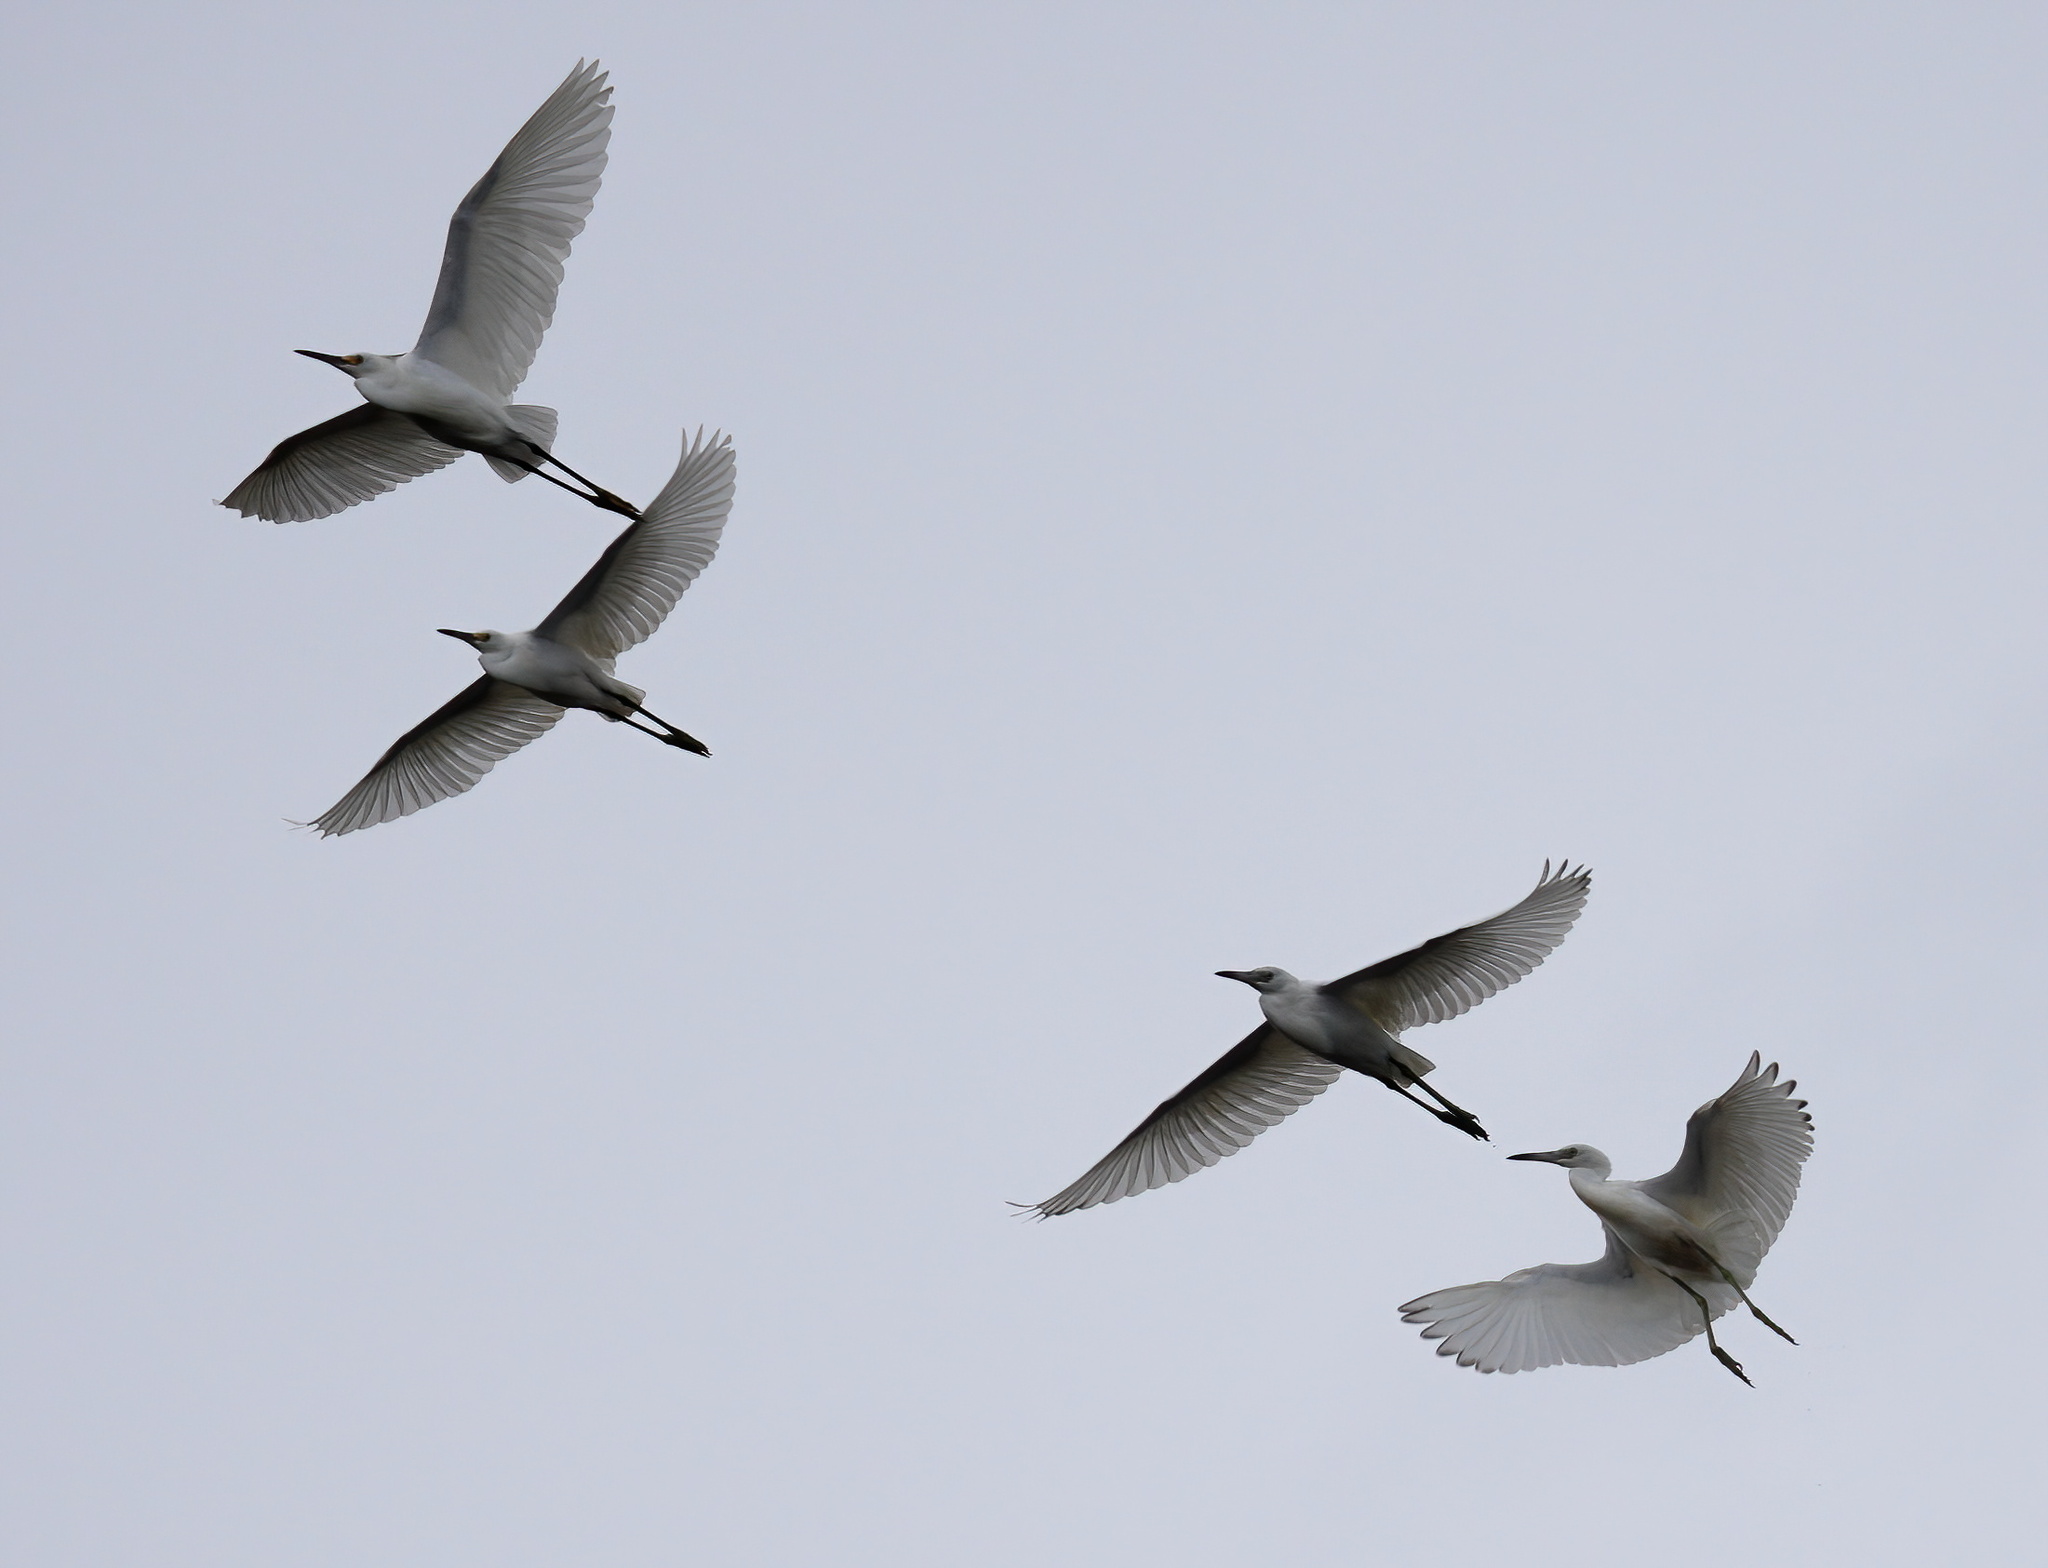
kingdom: Animalia
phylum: Chordata
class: Aves
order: Pelecaniformes
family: Ardeidae
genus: Egretta
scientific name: Egretta thula
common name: Snowy egret
